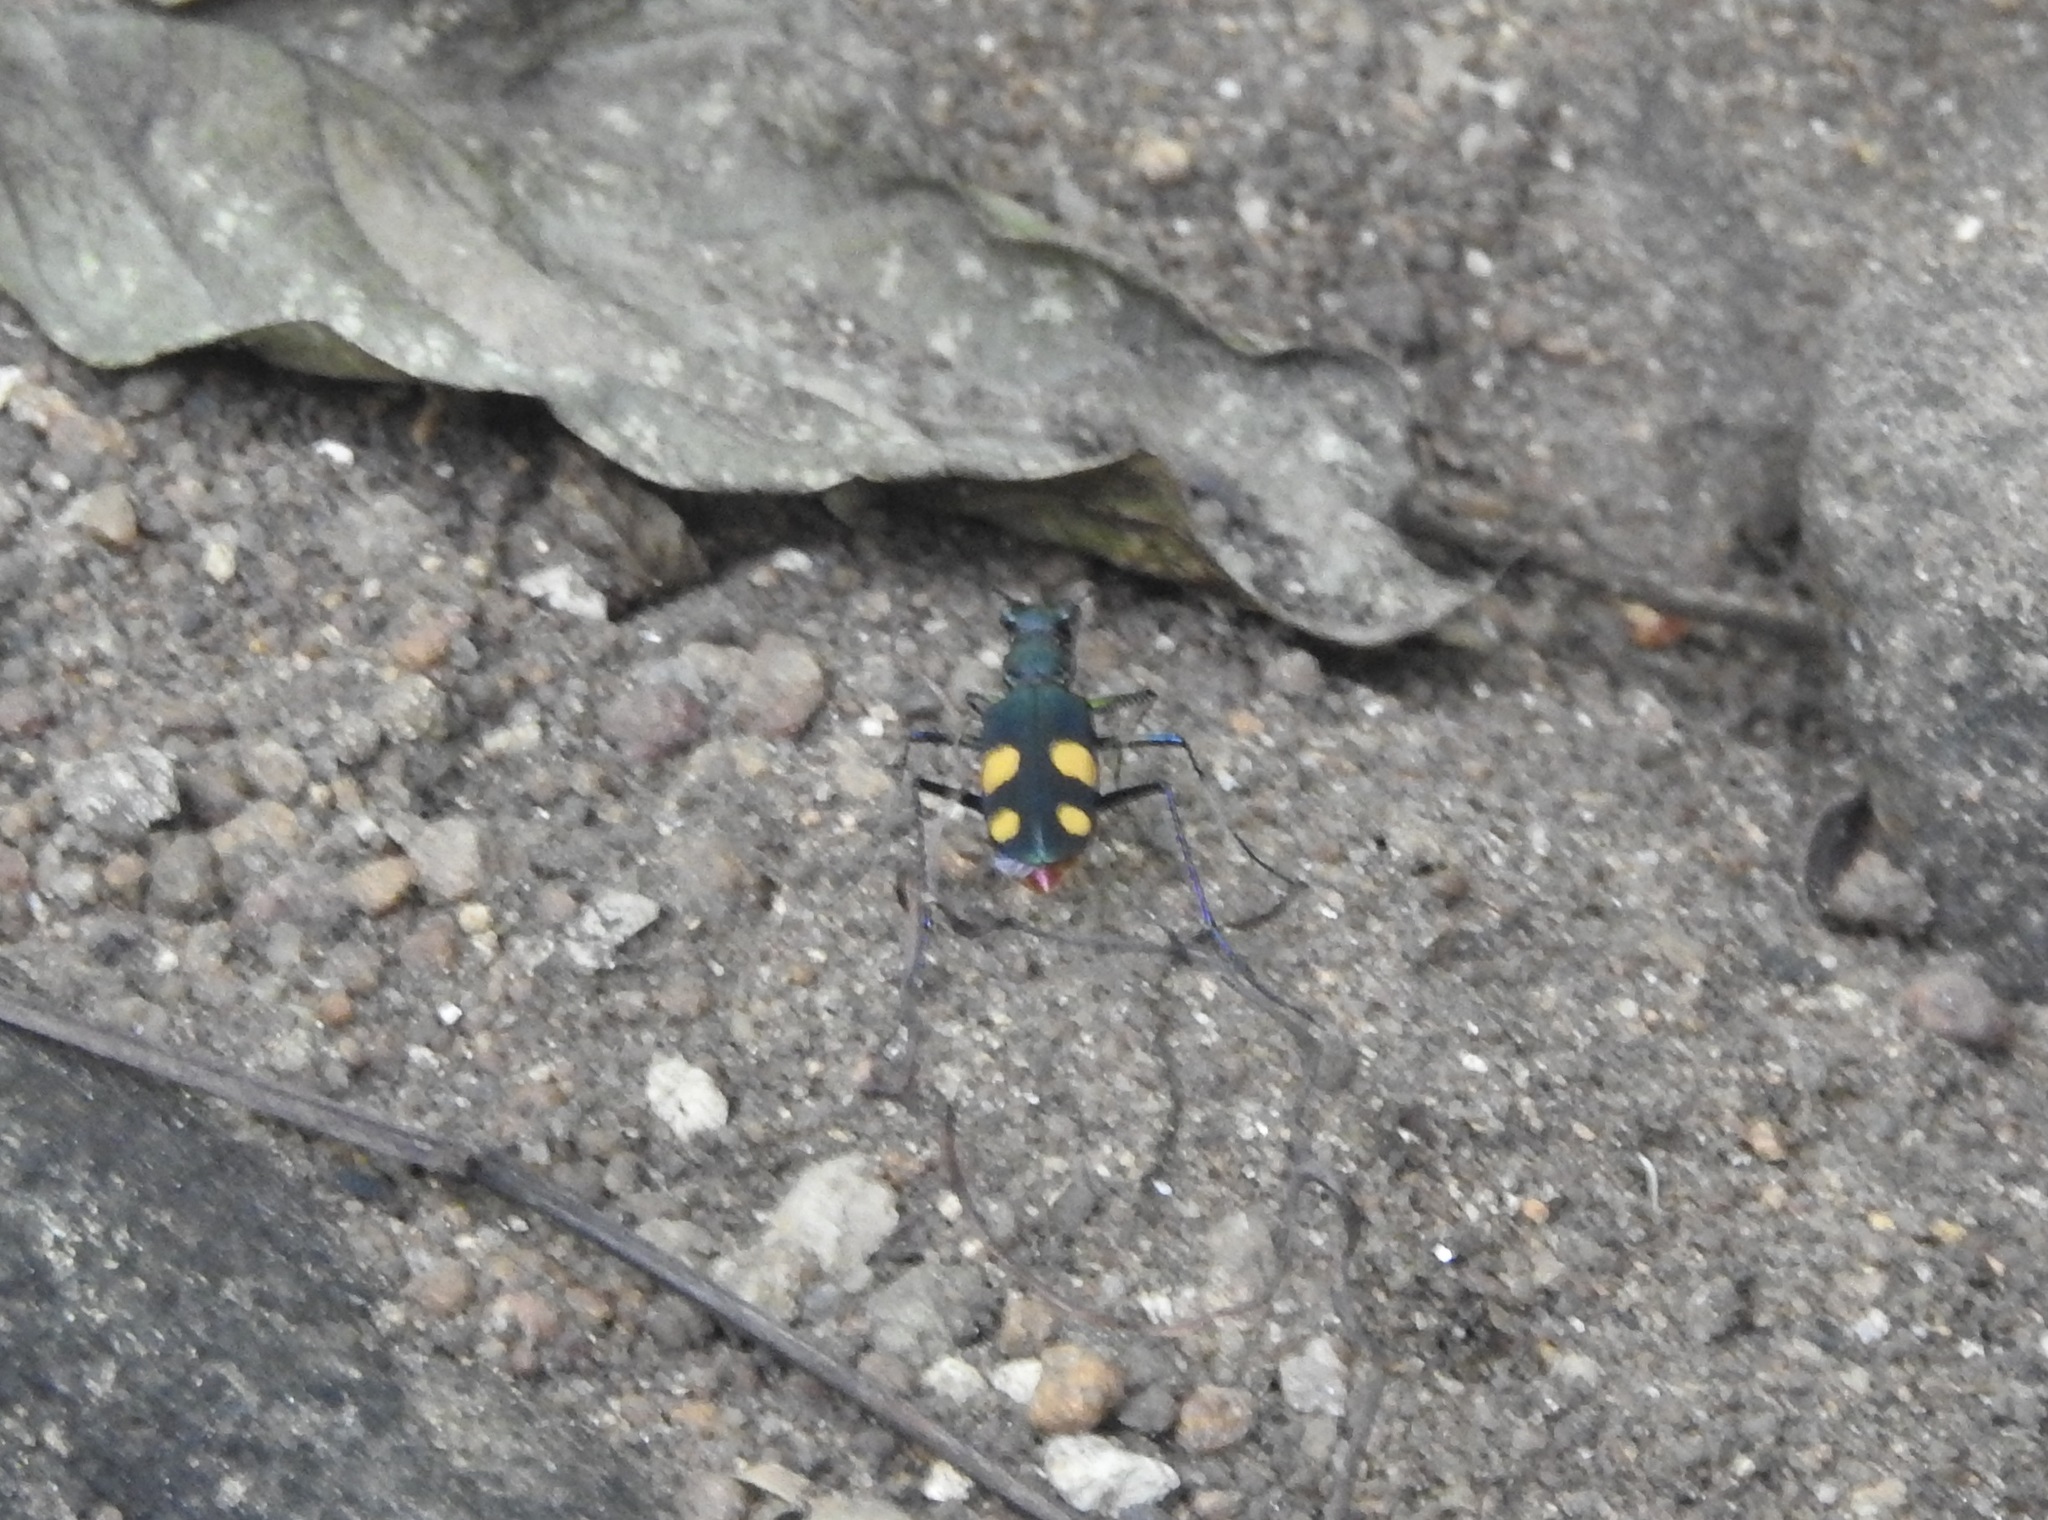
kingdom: Animalia
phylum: Arthropoda
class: Insecta
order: Coleoptera
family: Carabidae
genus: Cicindela
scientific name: Cicindela bicolor
